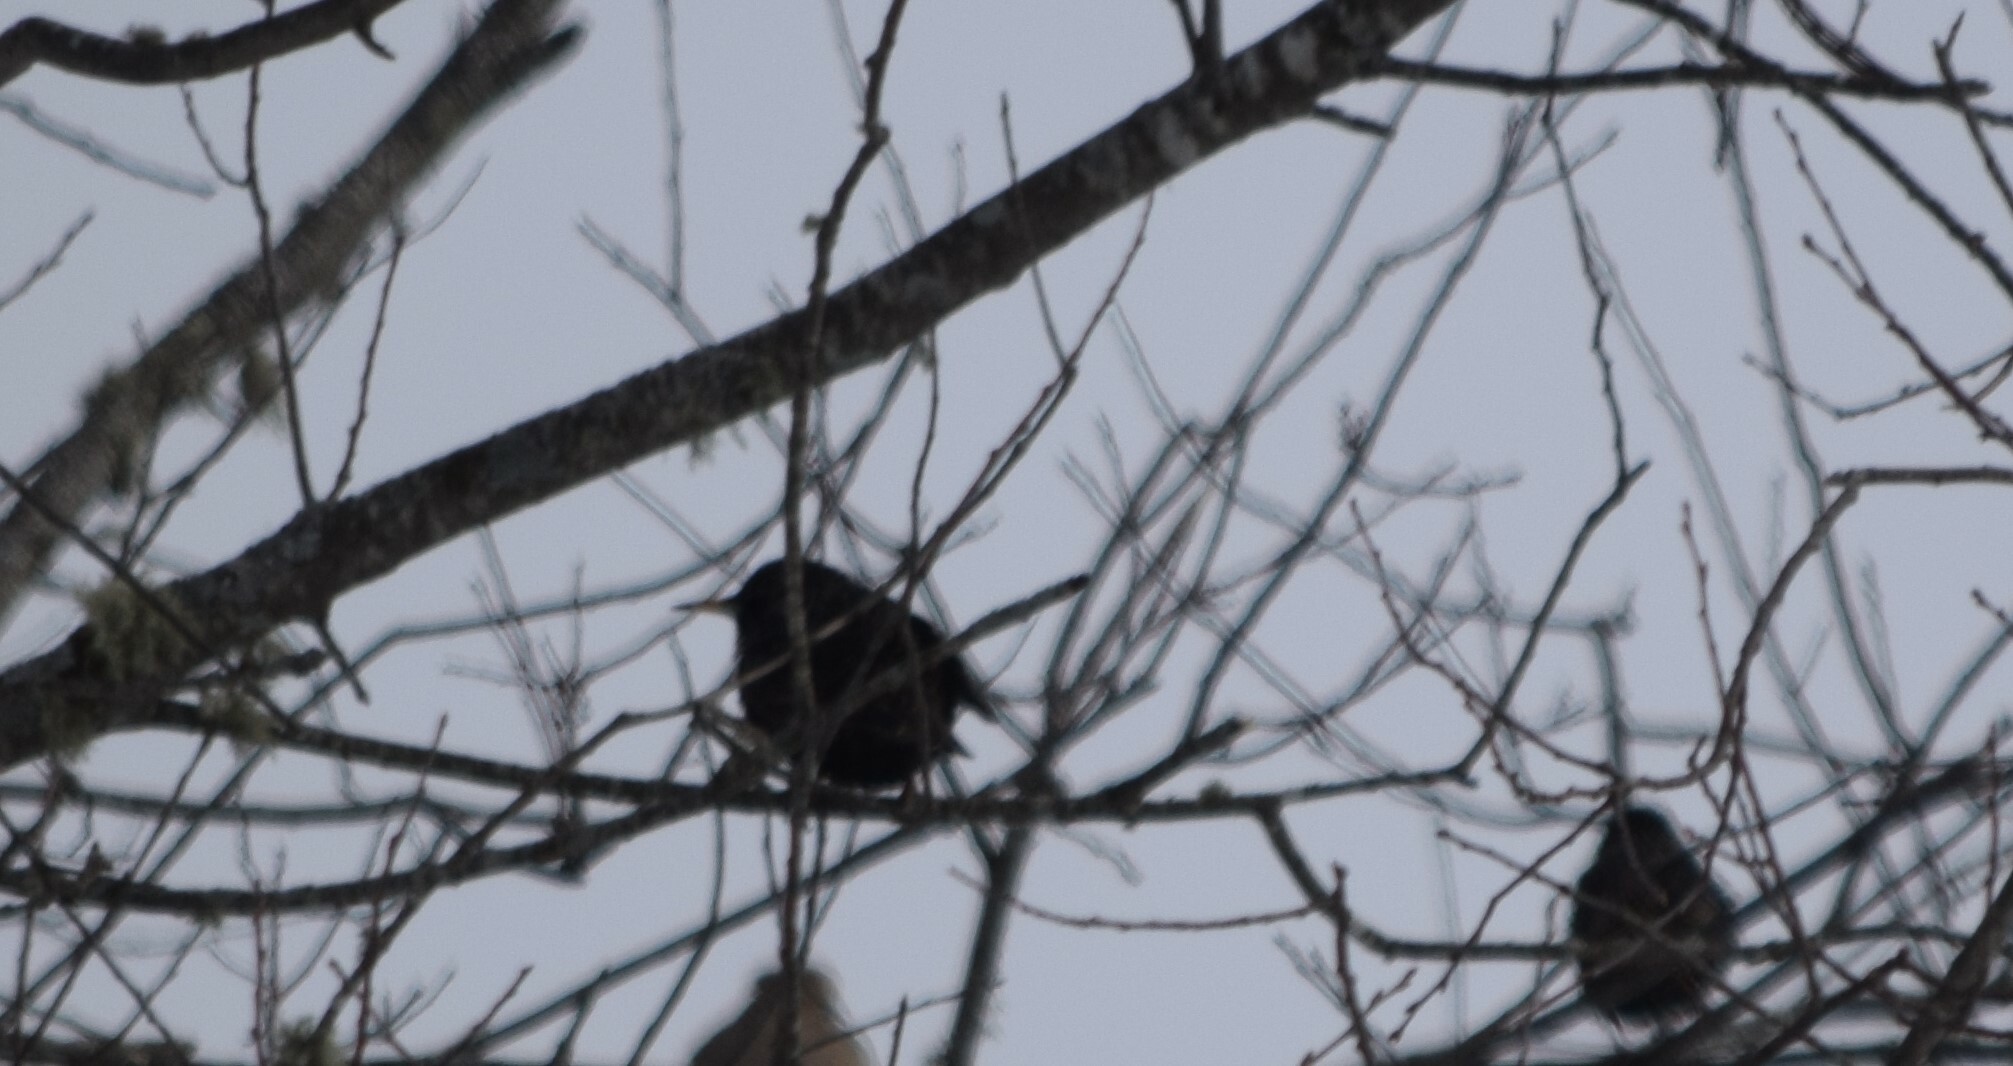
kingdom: Animalia
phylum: Chordata
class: Aves
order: Passeriformes
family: Sturnidae
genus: Sturnus
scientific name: Sturnus vulgaris
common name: Common starling
